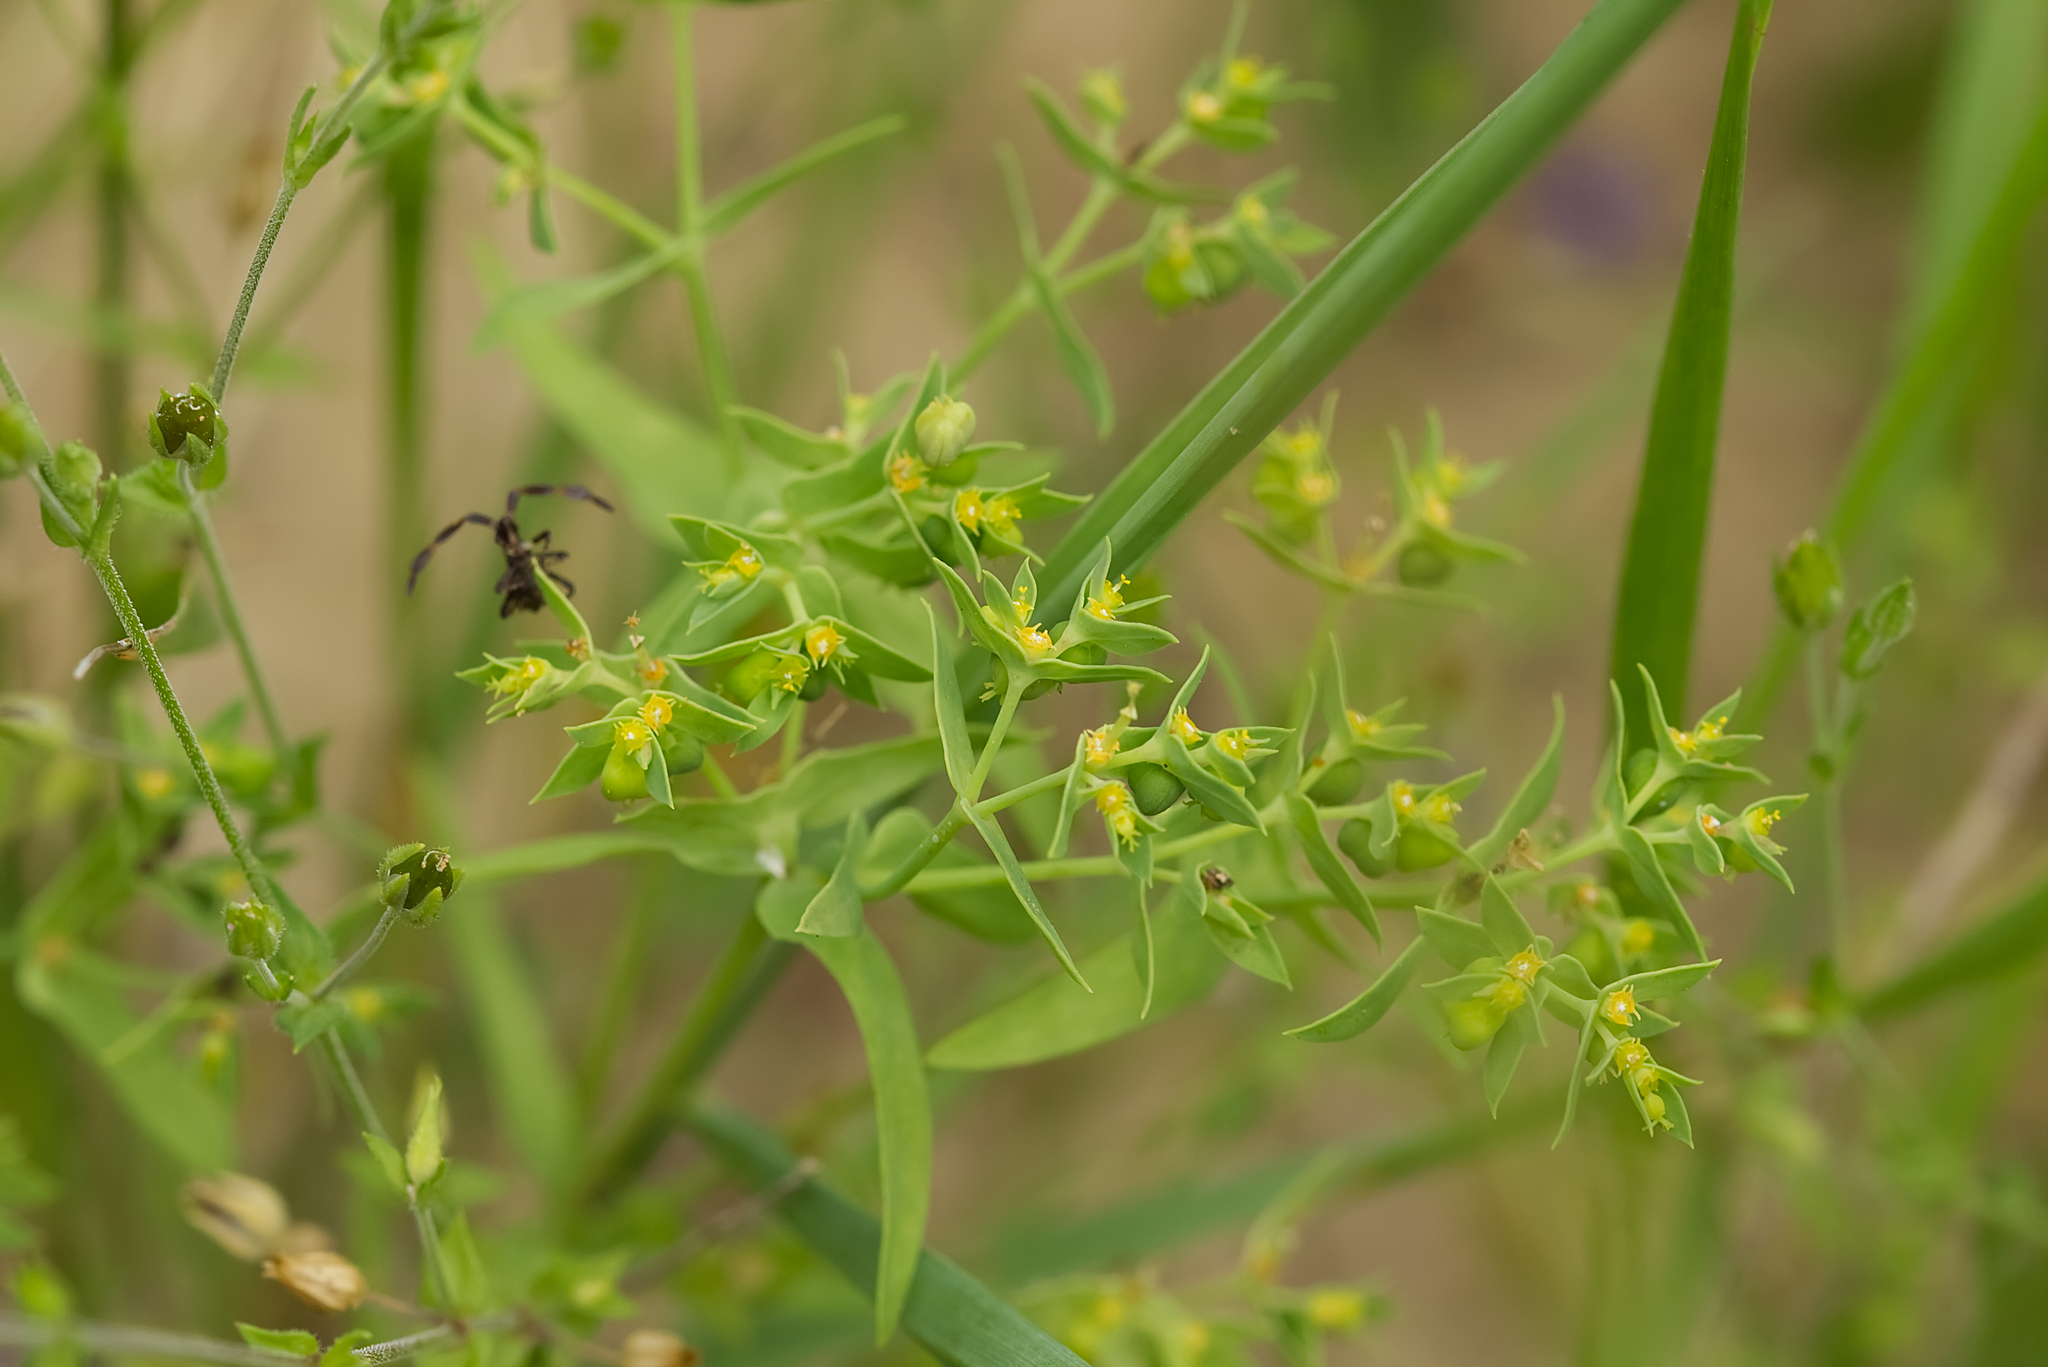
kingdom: Plantae
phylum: Tracheophyta
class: Magnoliopsida
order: Malpighiales
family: Euphorbiaceae
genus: Euphorbia
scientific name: Euphorbia exigua
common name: Dwarf spurge
